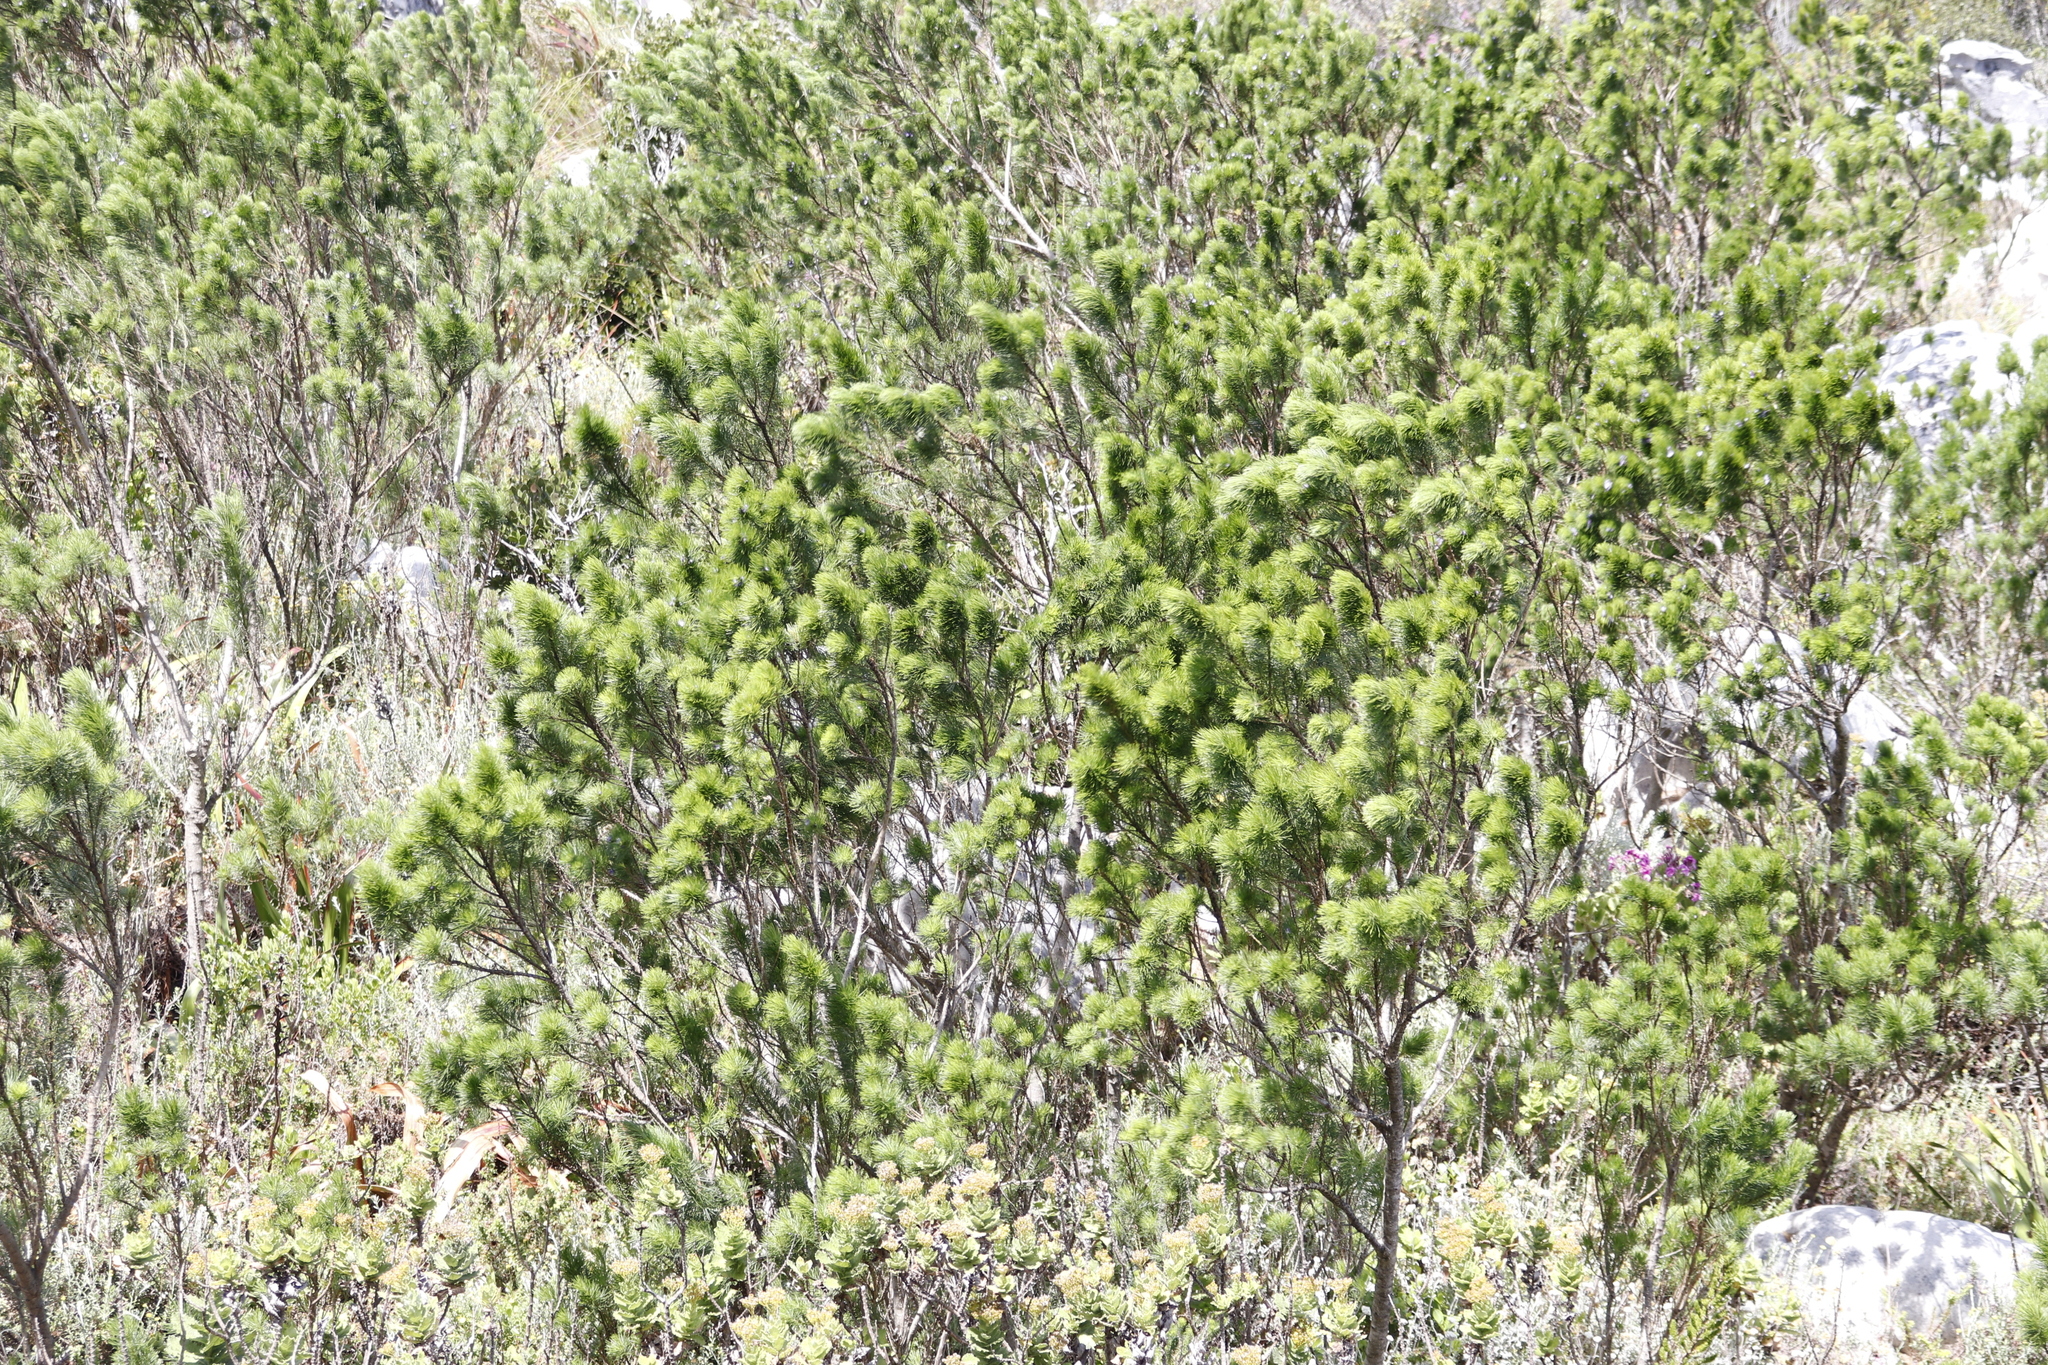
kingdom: Plantae
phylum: Tracheophyta
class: Magnoliopsida
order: Fabales
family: Fabaceae
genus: Psoralea
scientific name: Psoralea pinnata
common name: African scurfpea
